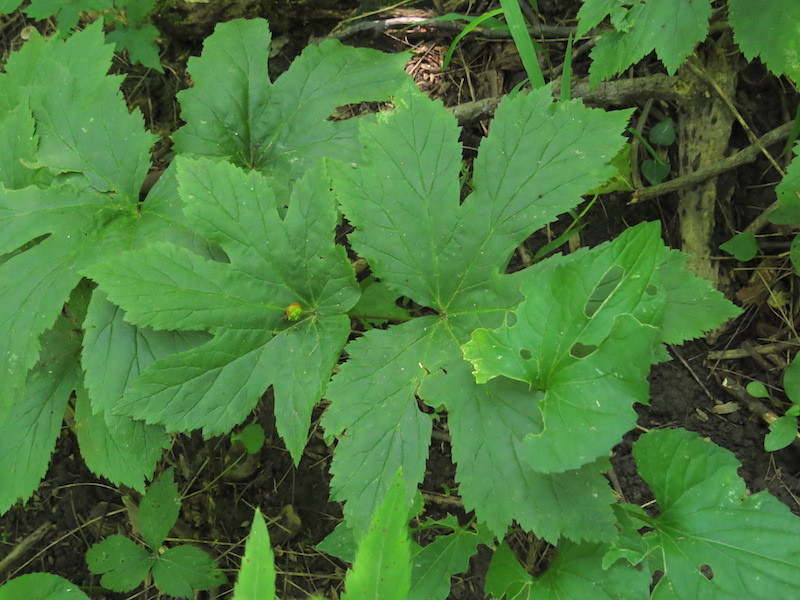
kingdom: Plantae
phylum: Tracheophyta
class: Magnoliopsida
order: Ranunculales
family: Ranunculaceae
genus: Hydrastis
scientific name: Hydrastis canadensis
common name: Goldenseal
